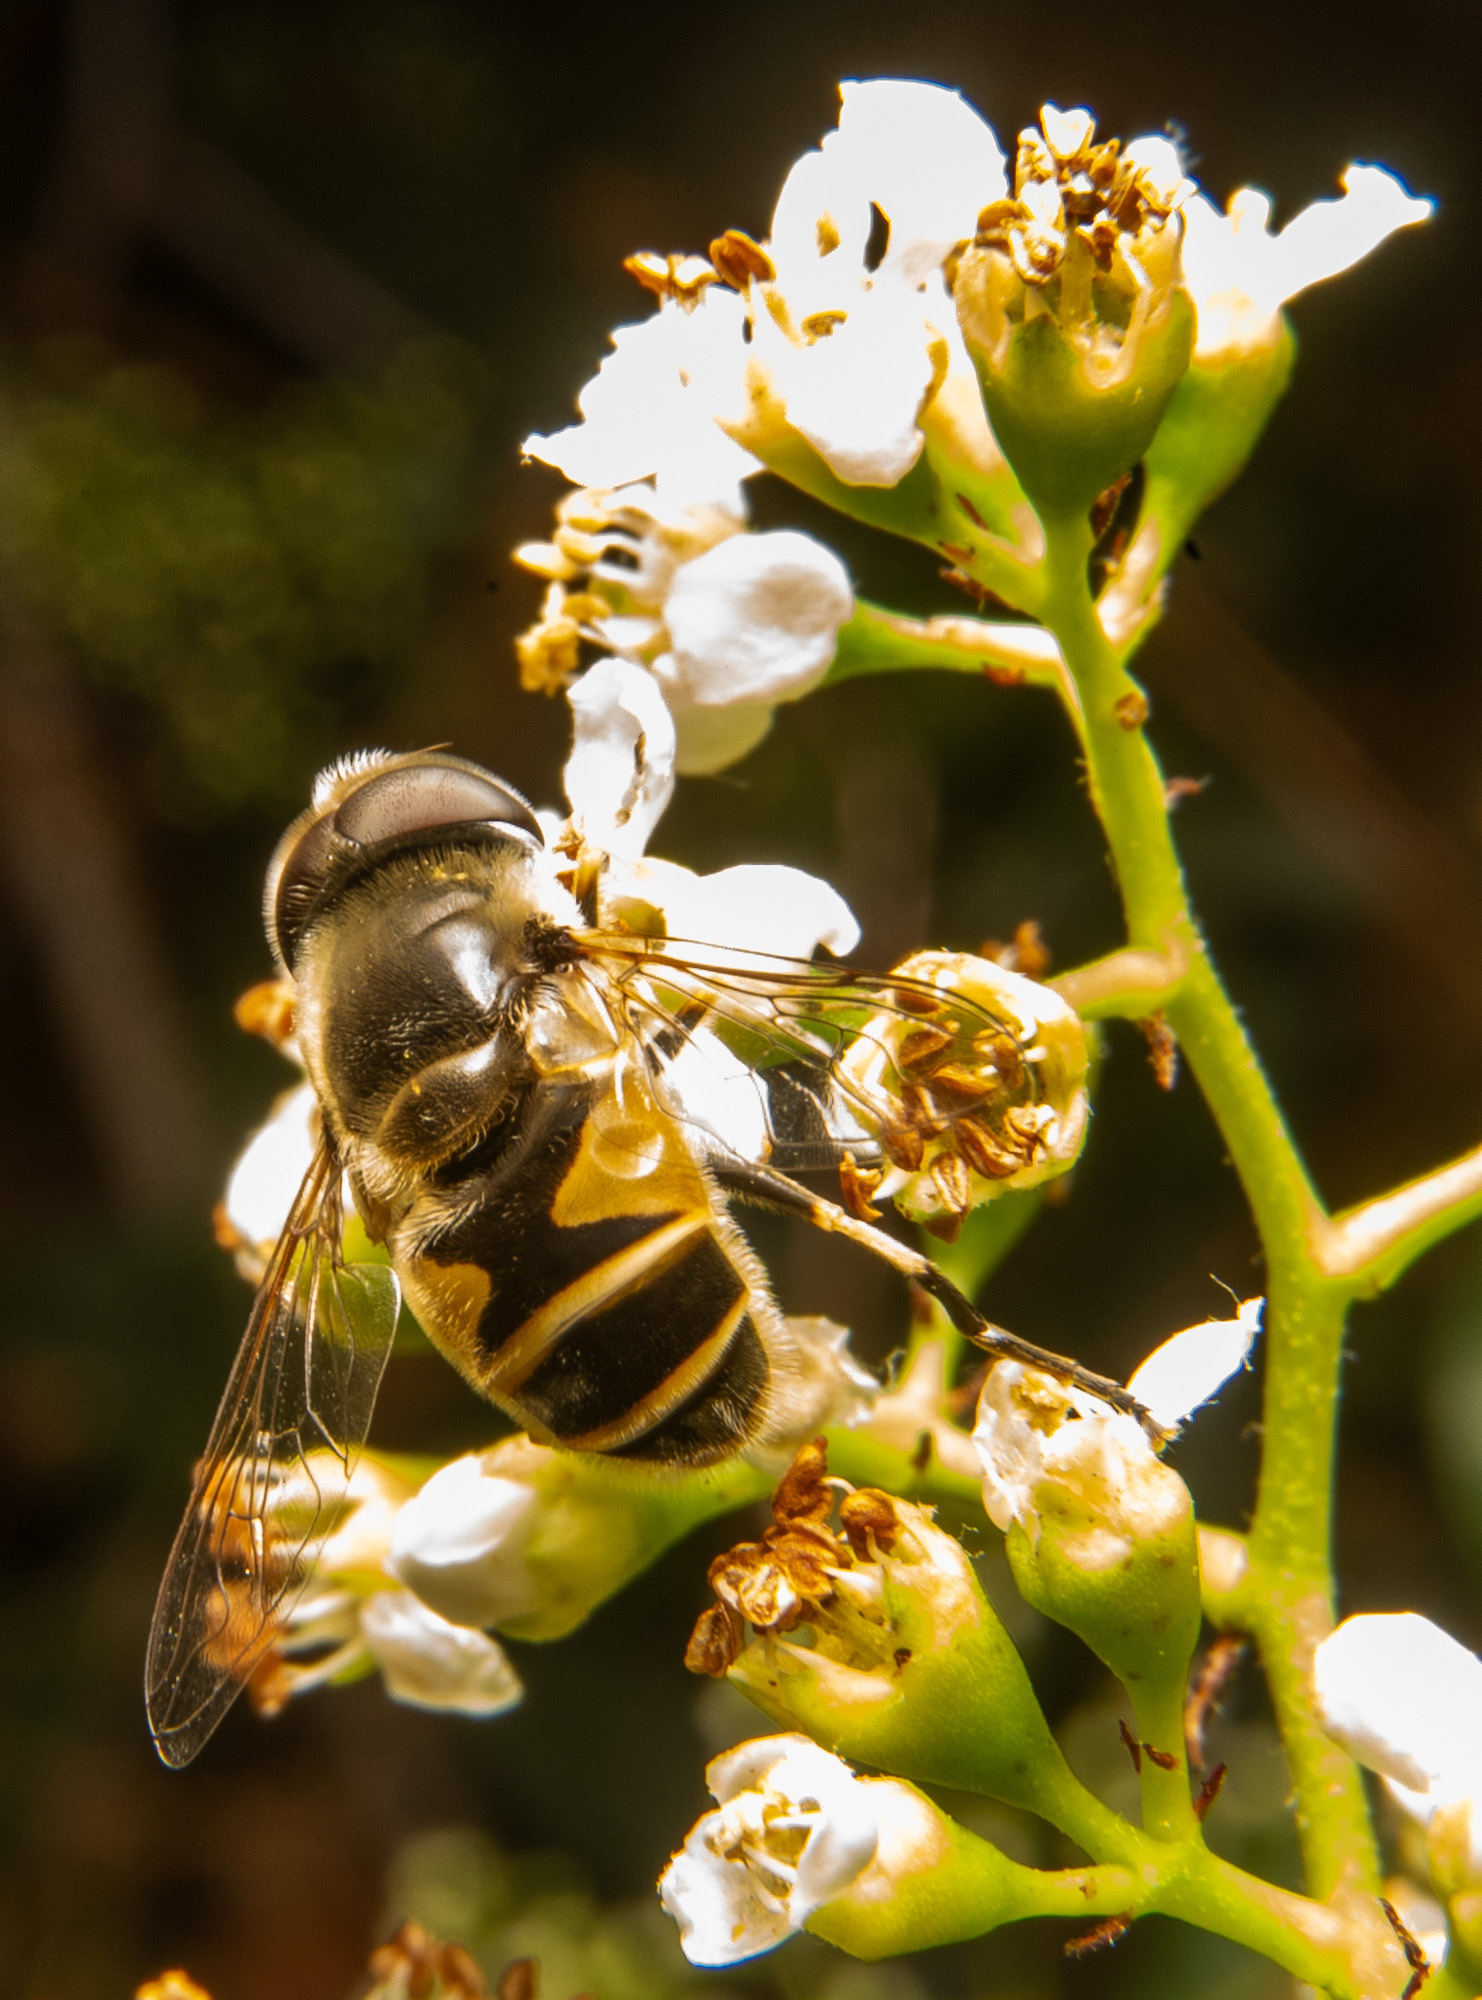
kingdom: Animalia
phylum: Arthropoda
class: Insecta
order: Diptera
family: Syrphidae
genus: Eristalis
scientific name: Eristalis hirta
